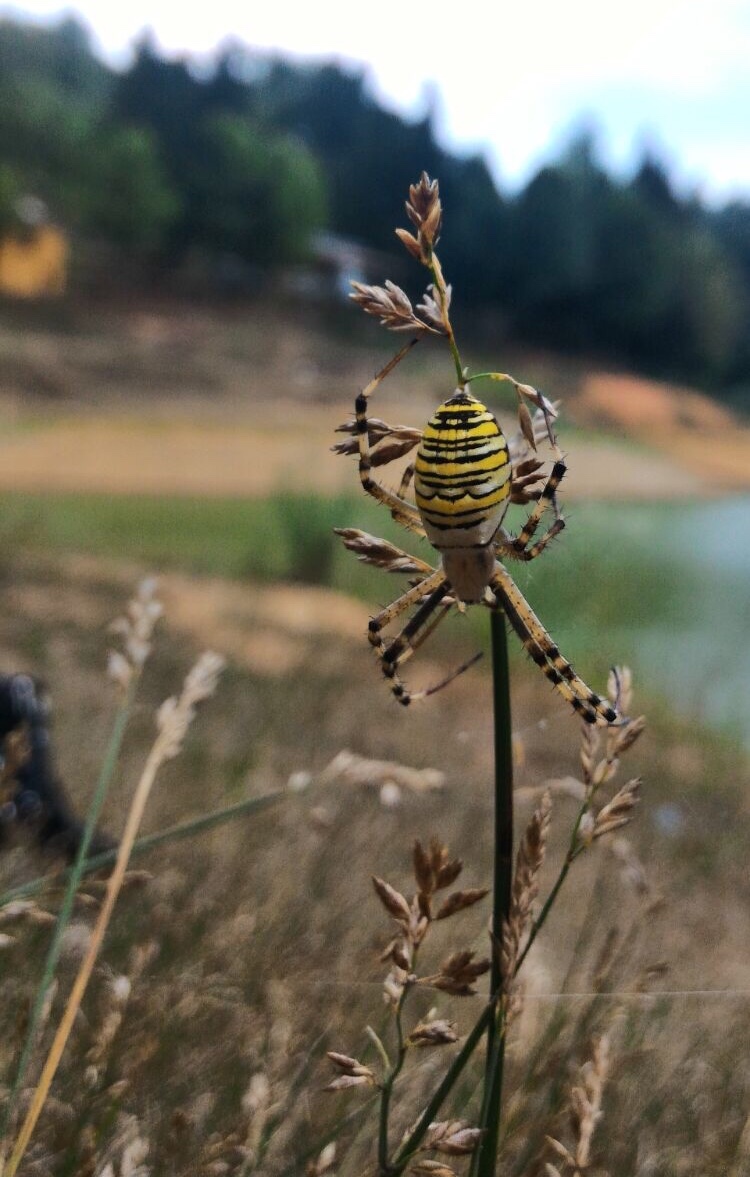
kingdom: Animalia
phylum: Arthropoda
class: Arachnida
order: Araneae
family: Araneidae
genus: Argiope
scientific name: Argiope bruennichi
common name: Wasp spider
